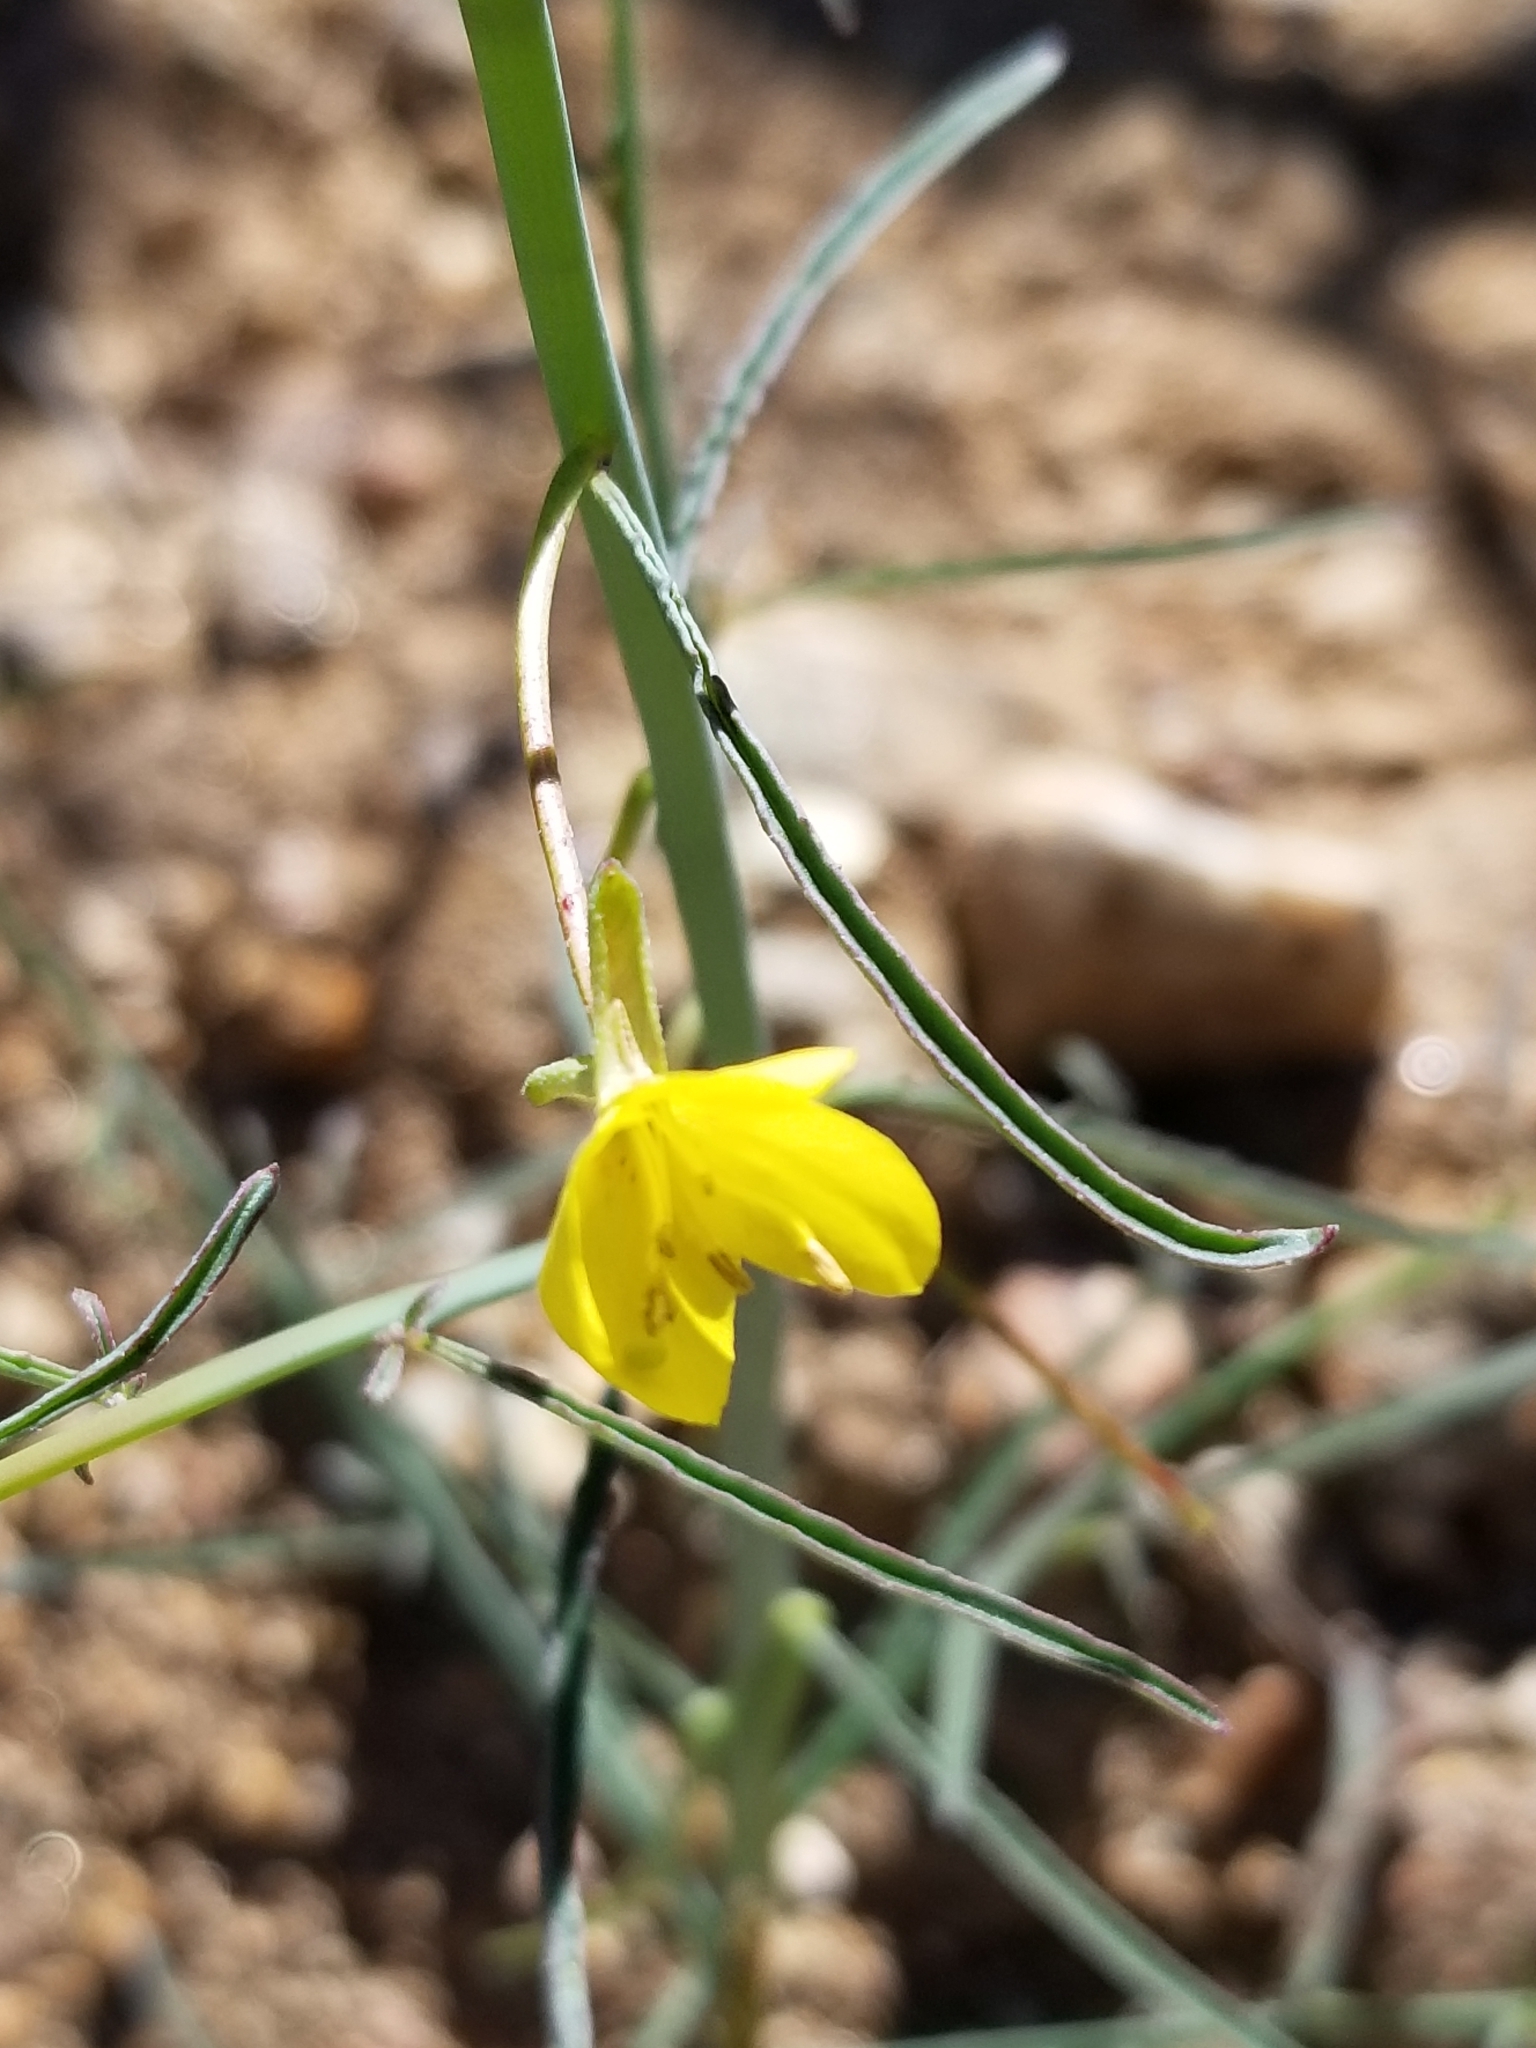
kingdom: Plantae
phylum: Tracheophyta
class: Magnoliopsida
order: Myrtales
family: Onagraceae
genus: Eulobus
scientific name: Eulobus californicus
